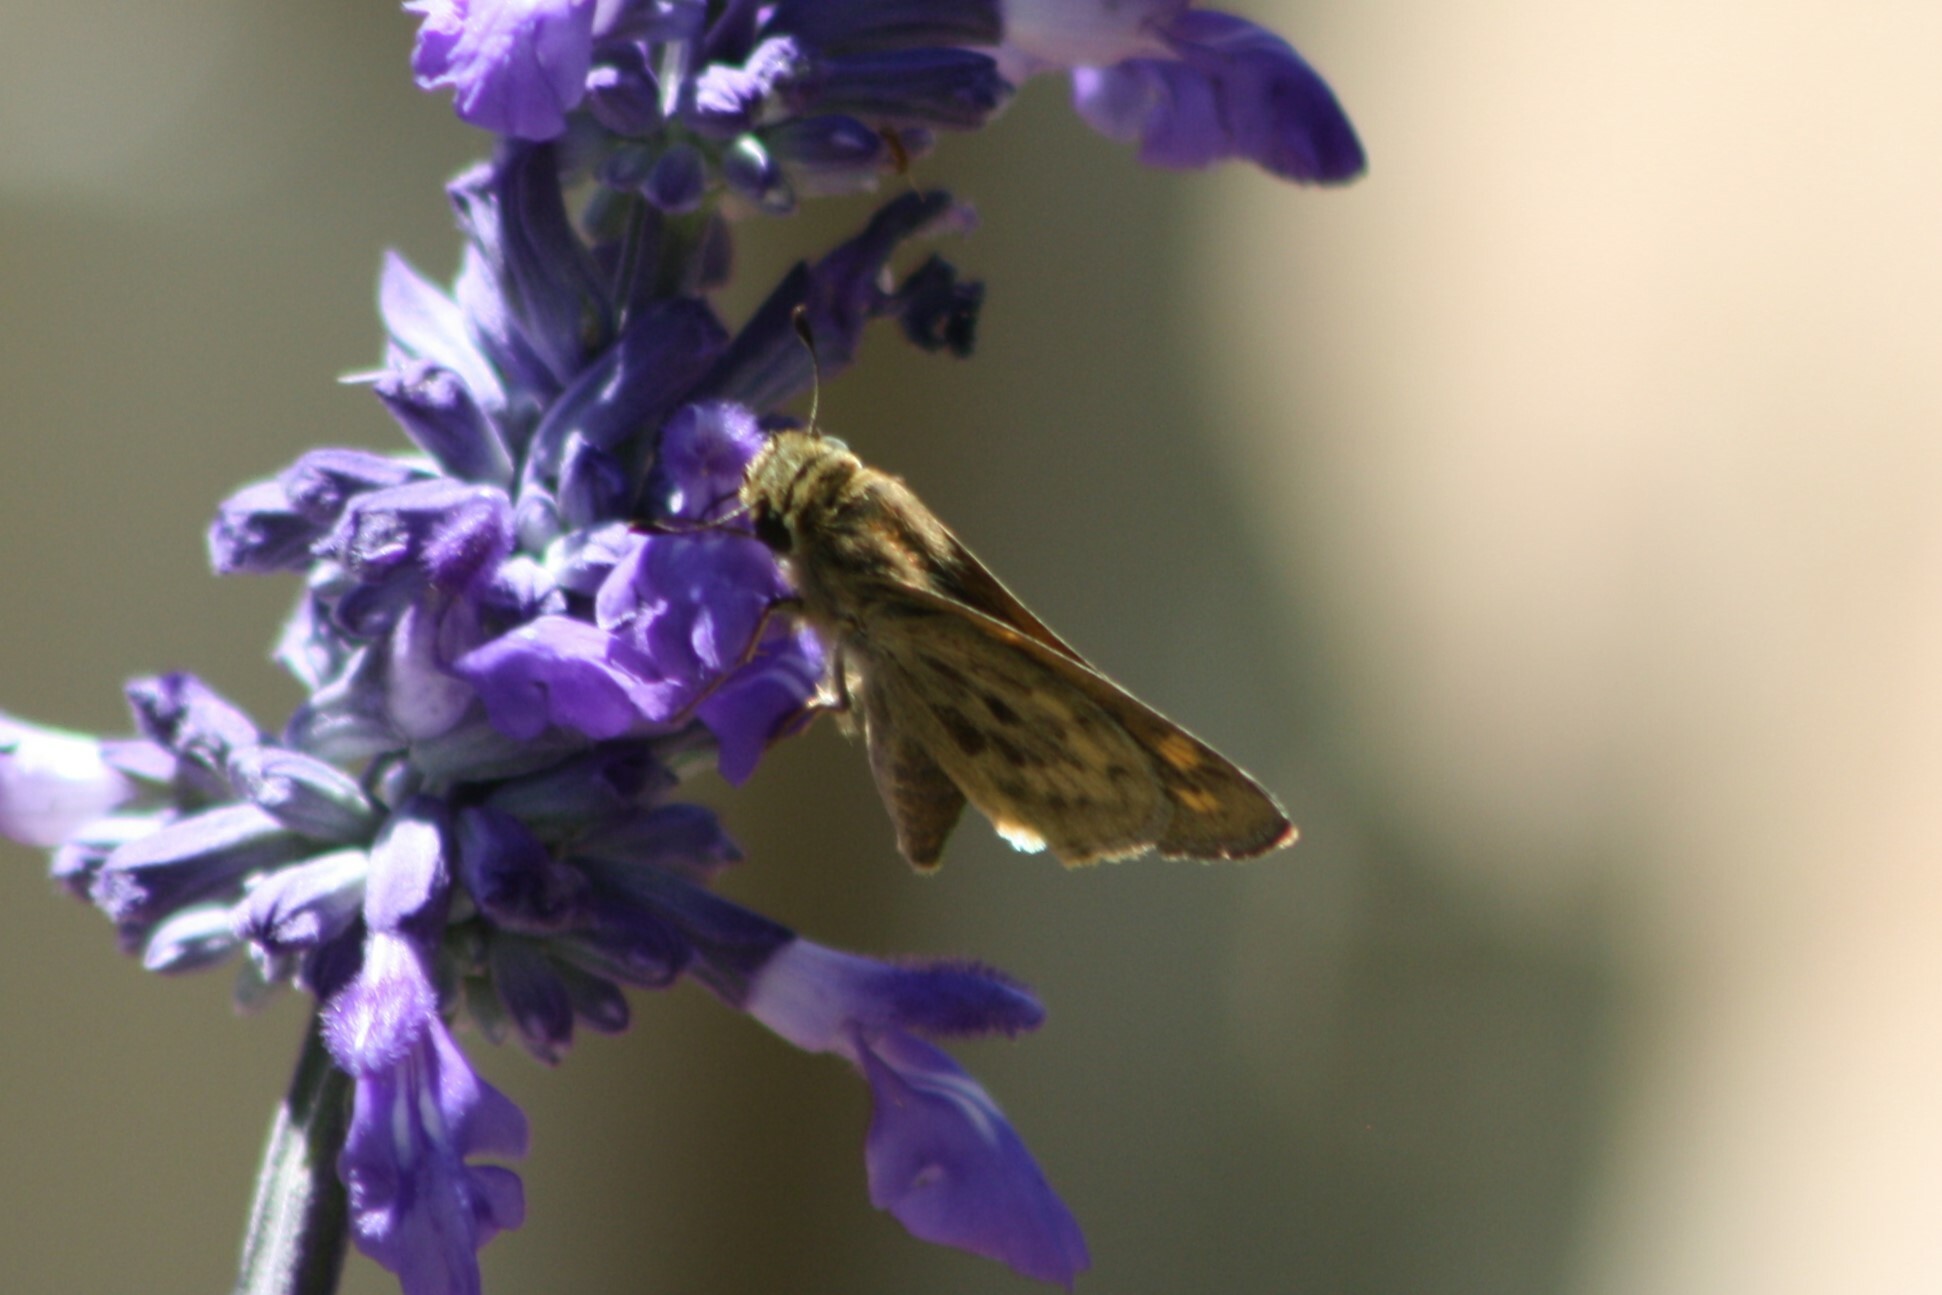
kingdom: Animalia
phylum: Arthropoda
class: Insecta
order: Lepidoptera
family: Hesperiidae
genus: Hylephila
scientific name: Hylephila phyleus
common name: Fiery skipper
